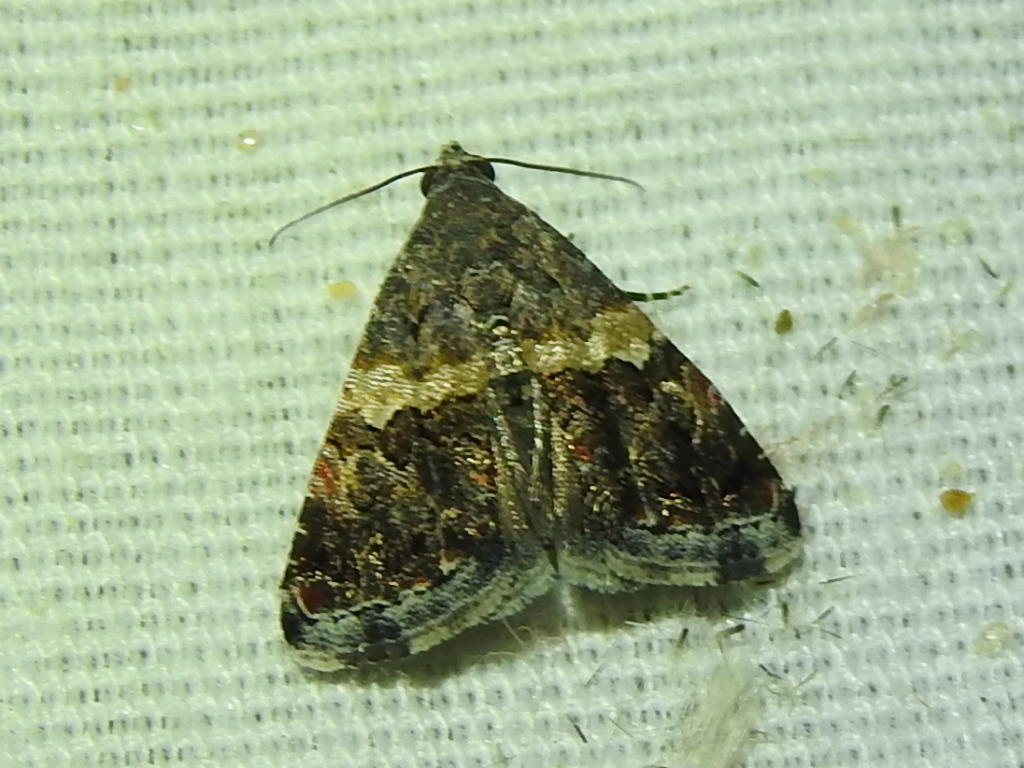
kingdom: Animalia
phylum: Arthropoda
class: Insecta
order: Lepidoptera
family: Noctuidae
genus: Tripudia
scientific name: Tripudia luxuriosa
